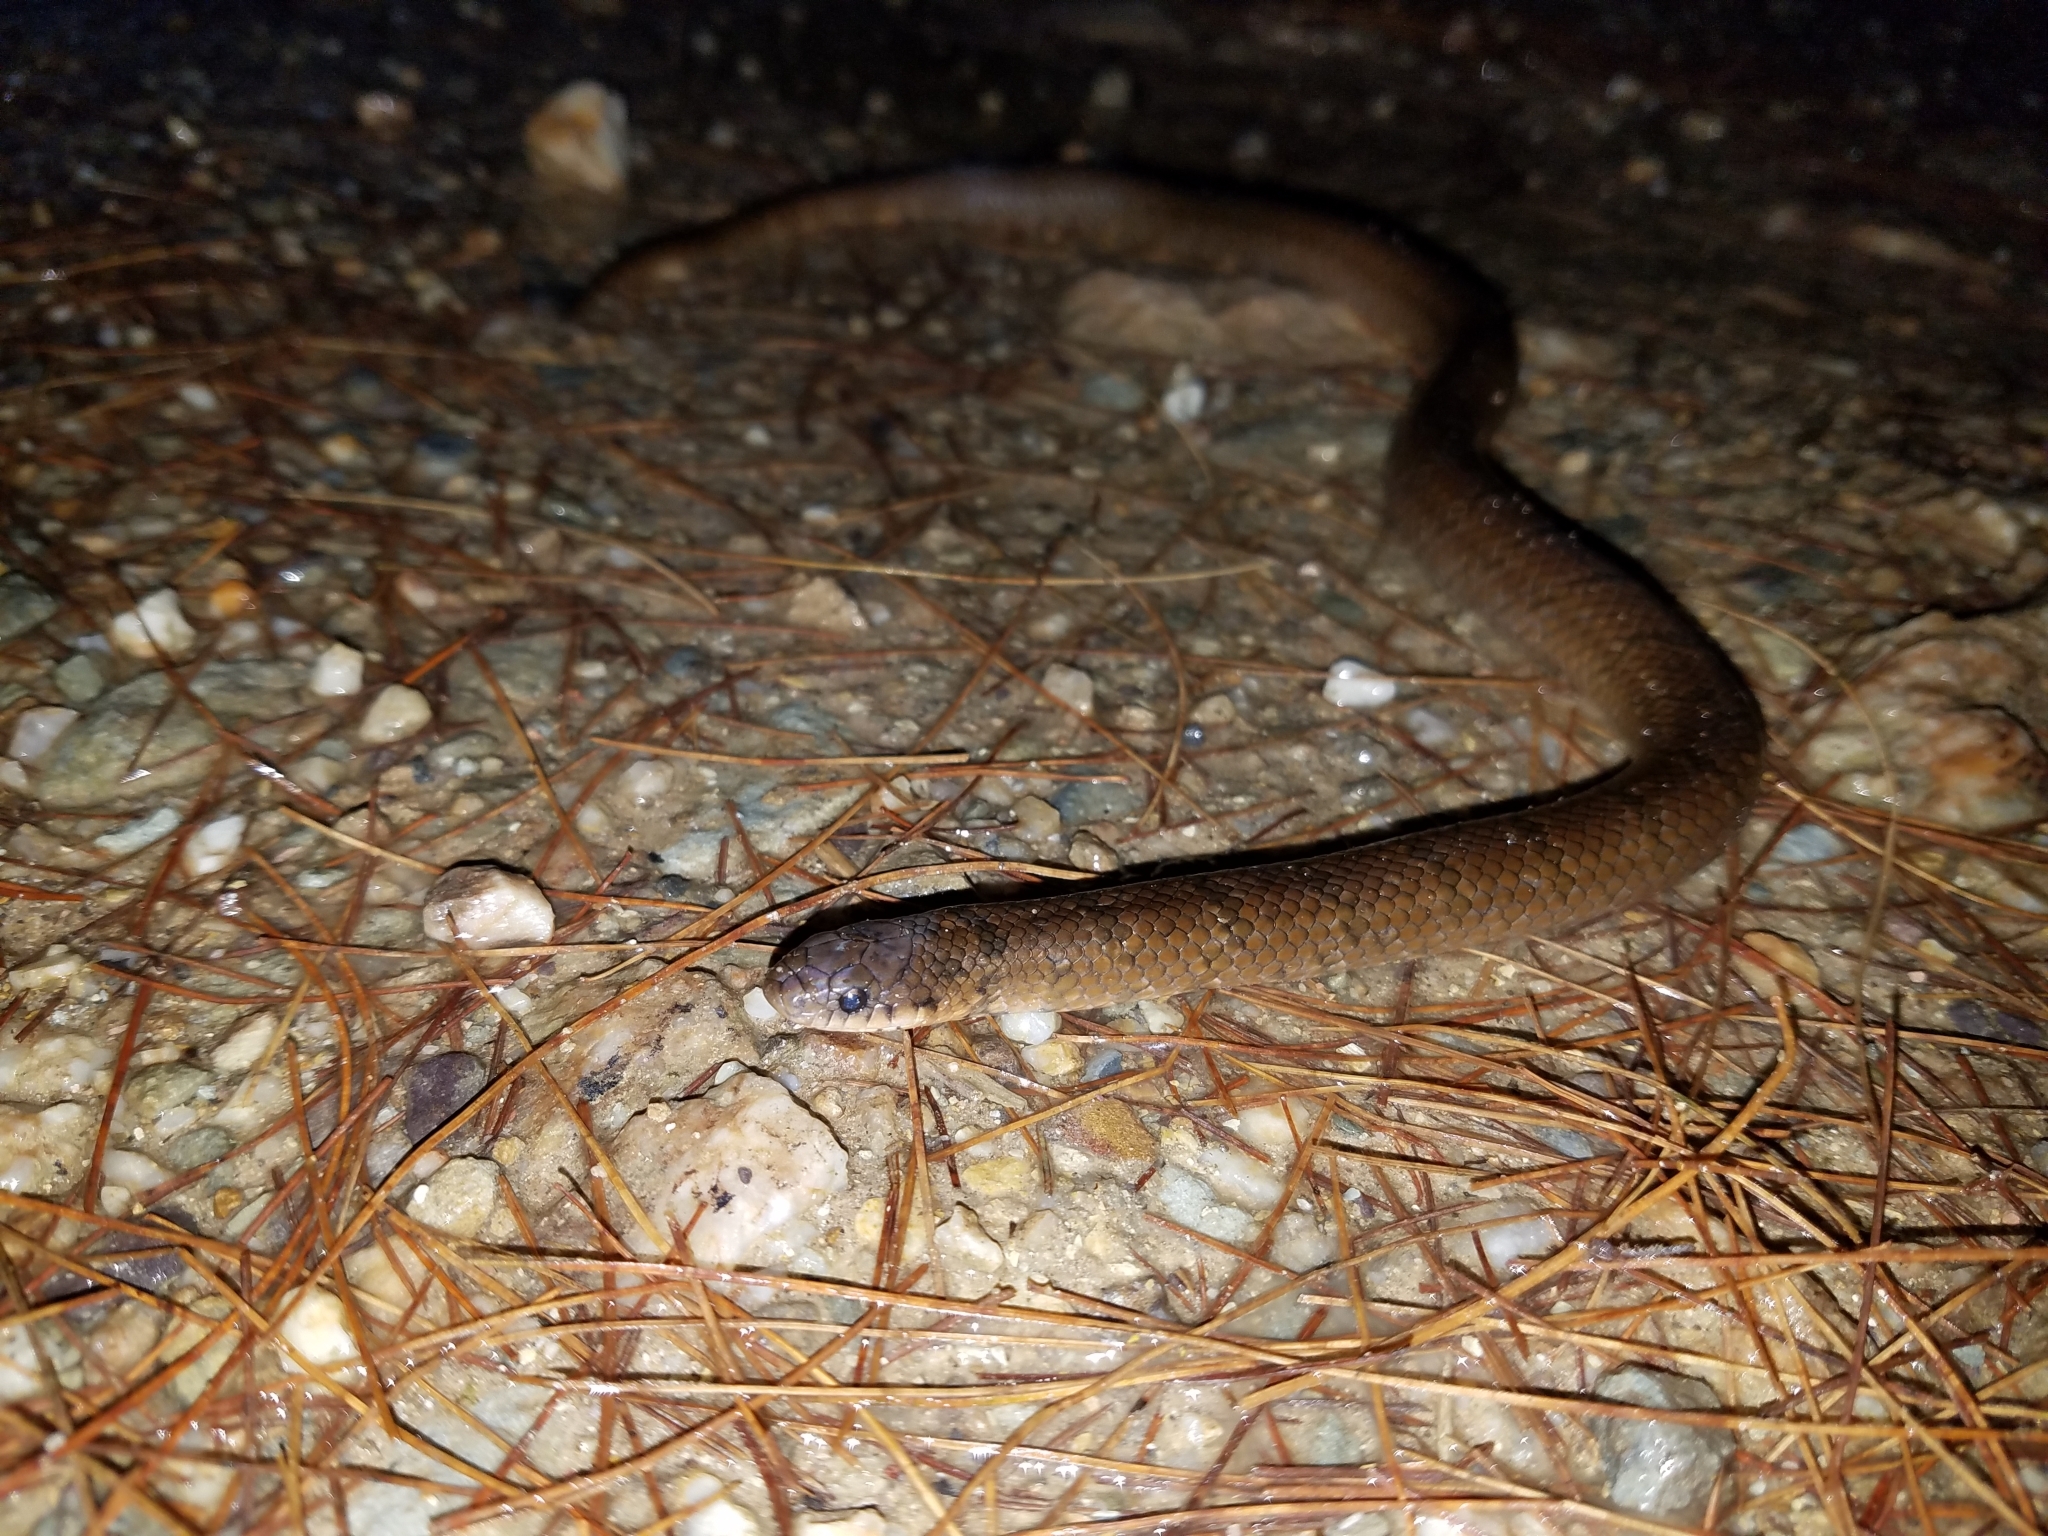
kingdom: Animalia
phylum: Chordata
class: Squamata
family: Colubridae
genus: Stenorrhina
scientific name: Stenorrhina degenhardtii
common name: Degenhardt's scorpion-eating snake
